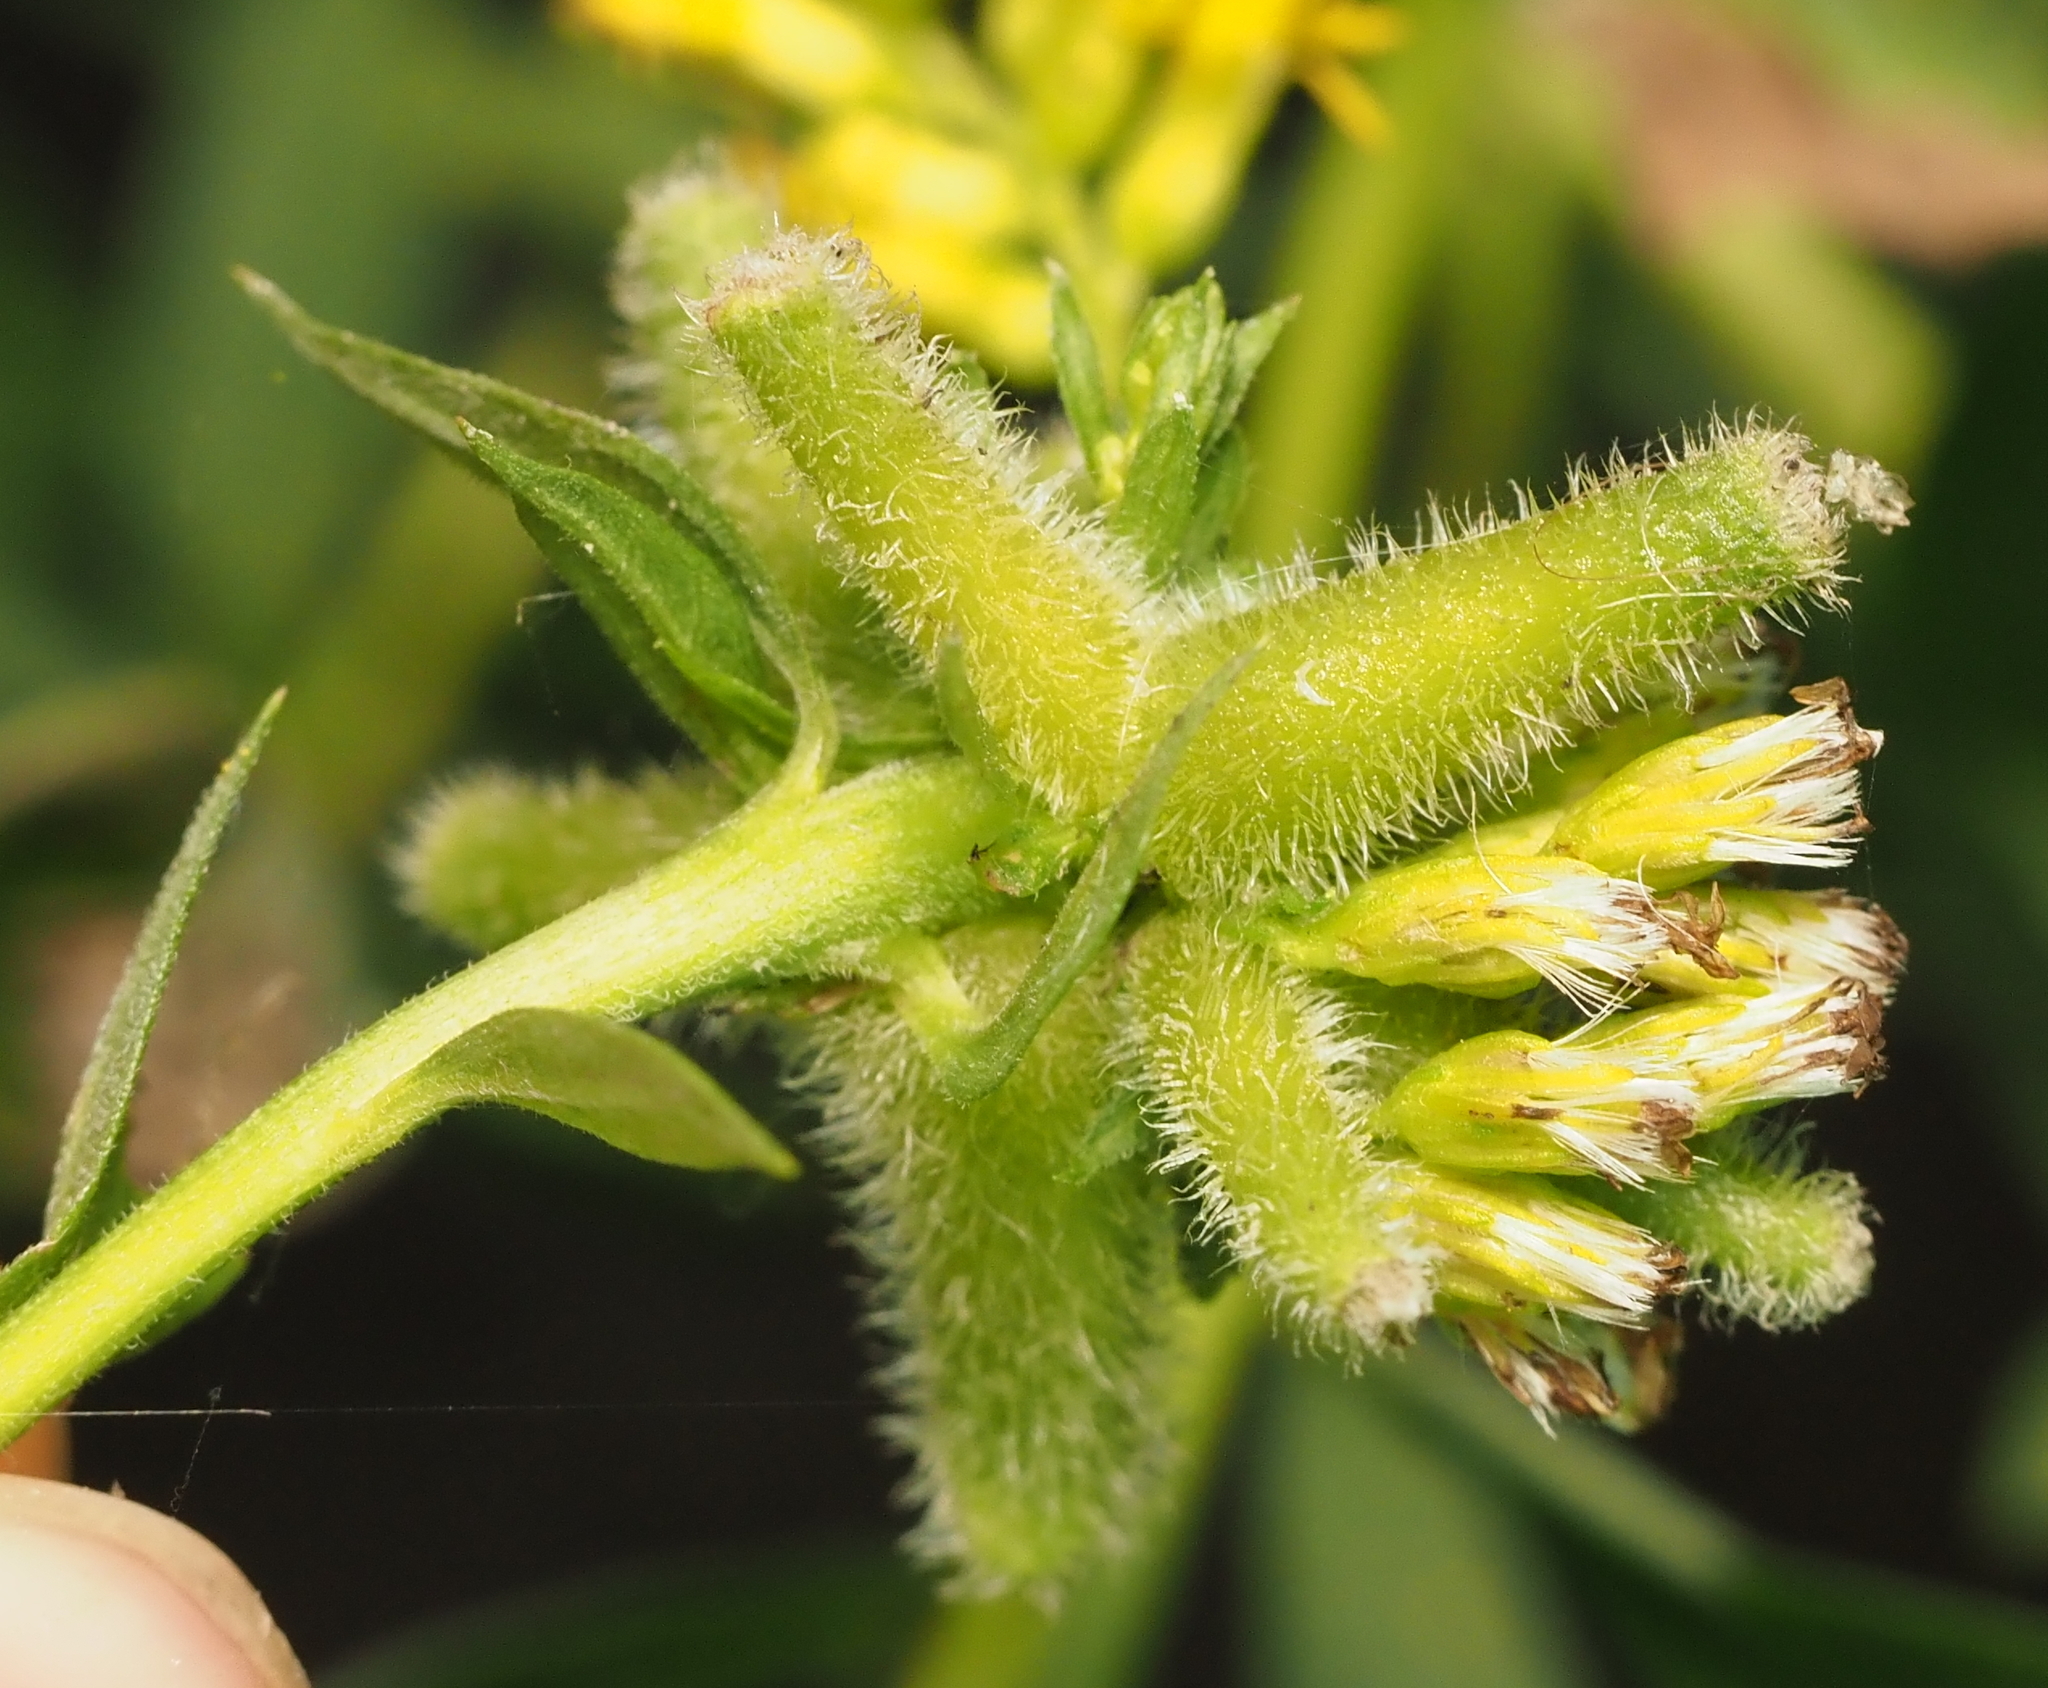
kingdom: Animalia
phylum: Arthropoda
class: Insecta
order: Diptera
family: Cecidomyiidae
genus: Rhopalomyia
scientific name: Rhopalomyia anthophila
